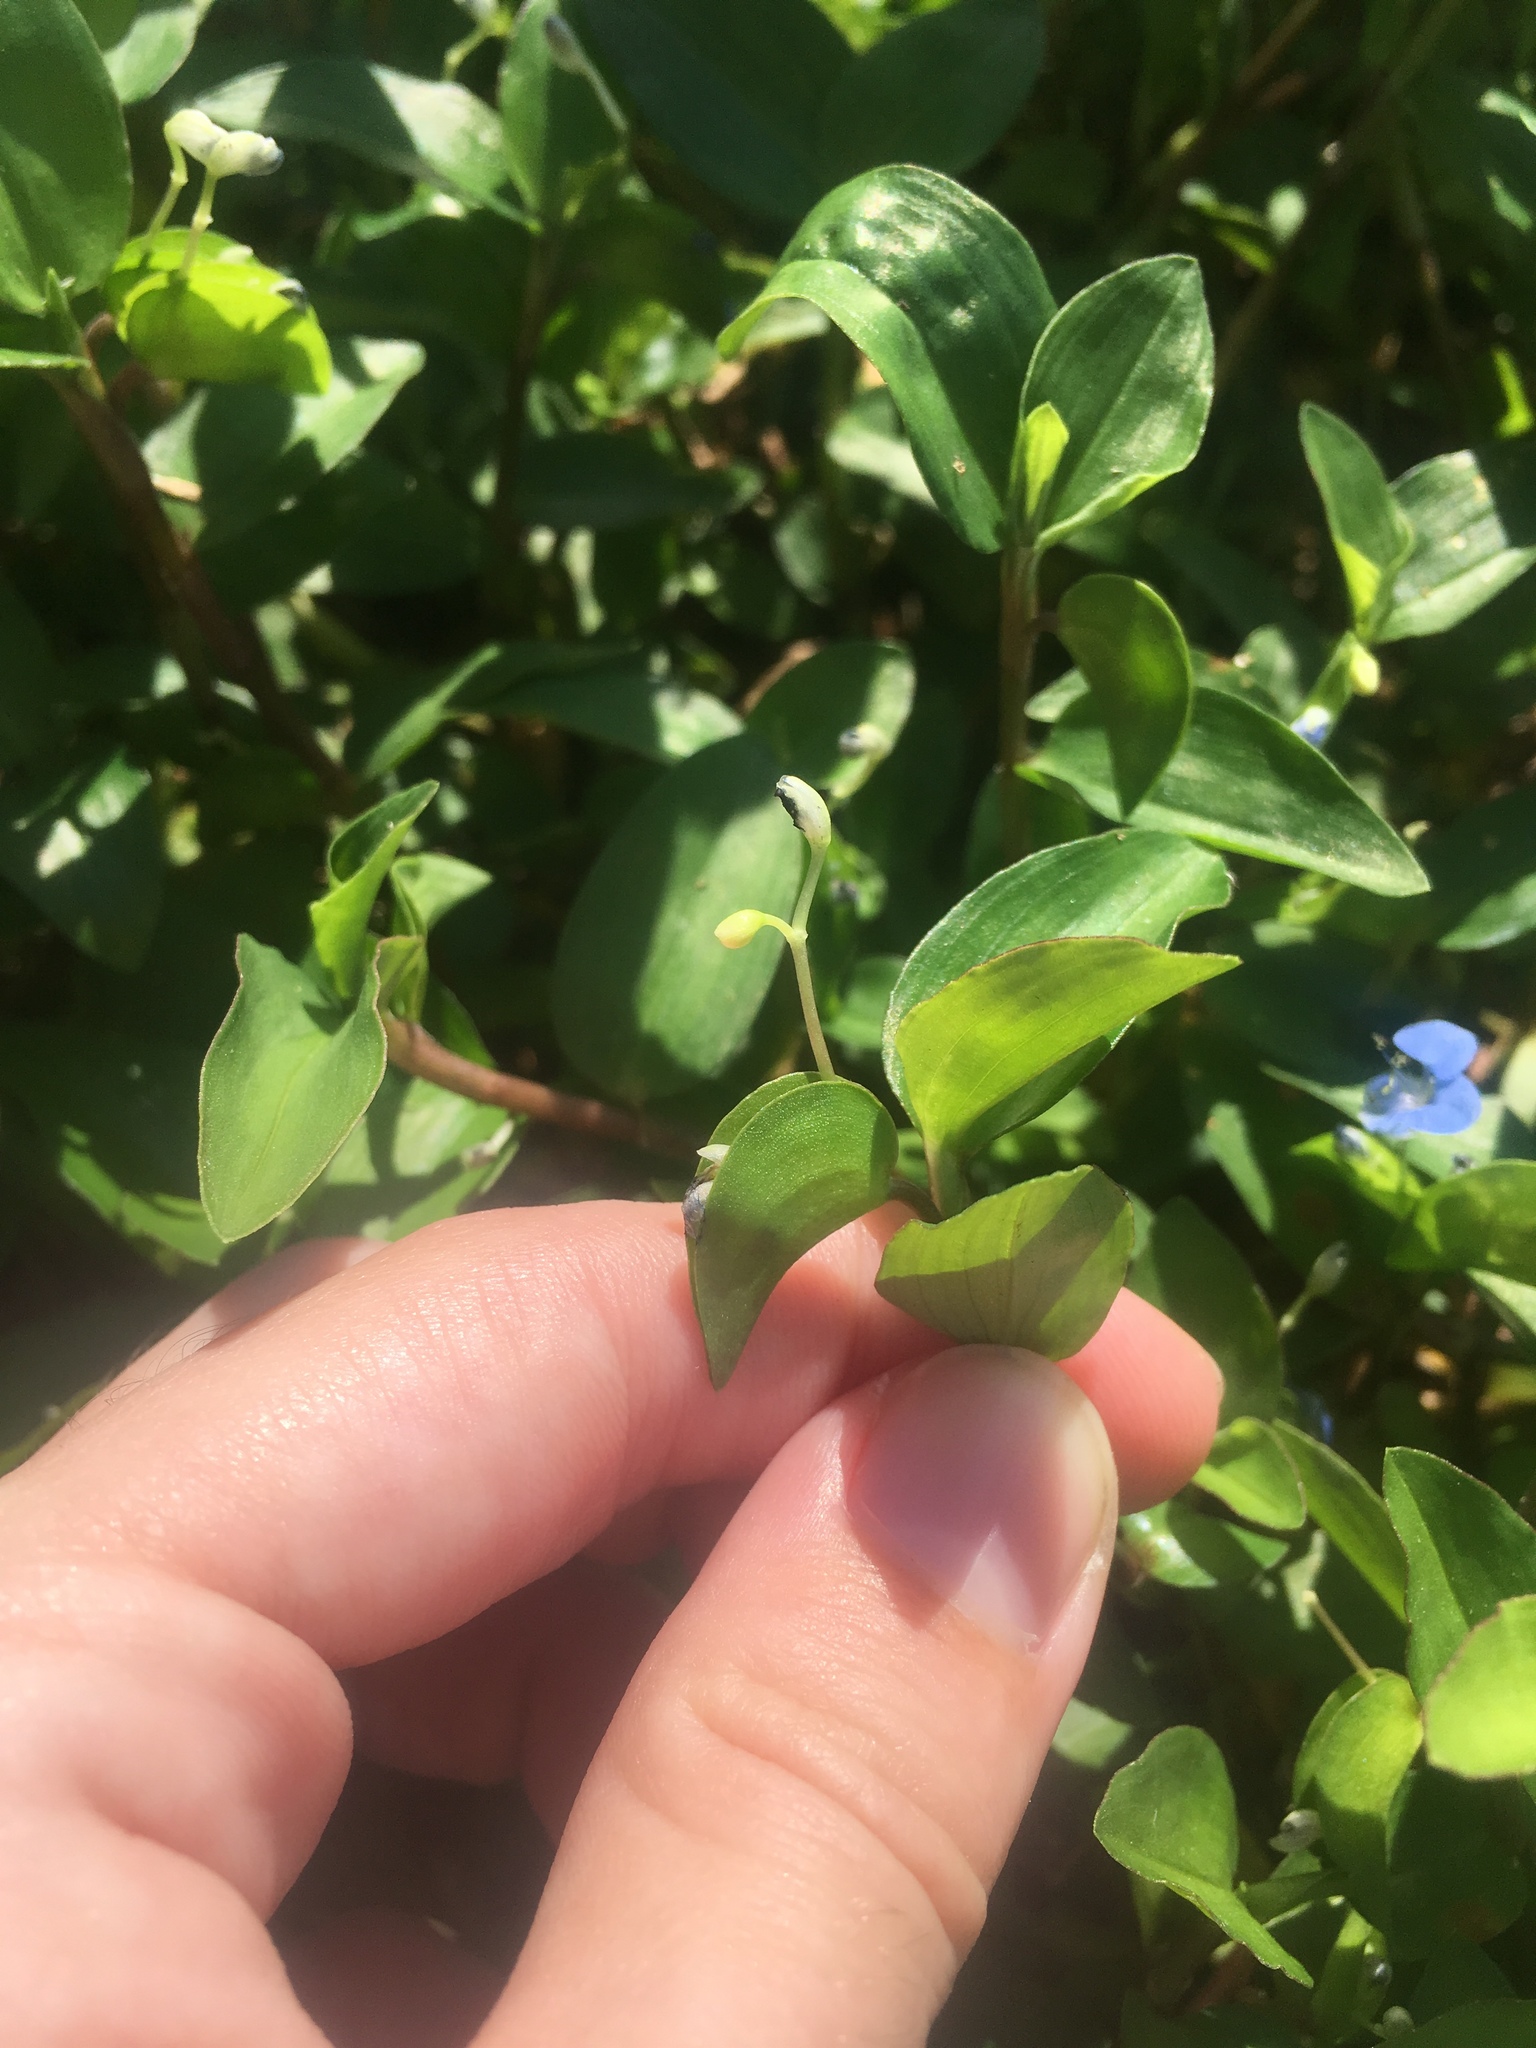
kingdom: Plantae
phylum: Tracheophyta
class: Liliopsida
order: Commelinales
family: Commelinaceae
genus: Commelina
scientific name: Commelina diffusa
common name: Climbing dayflower
